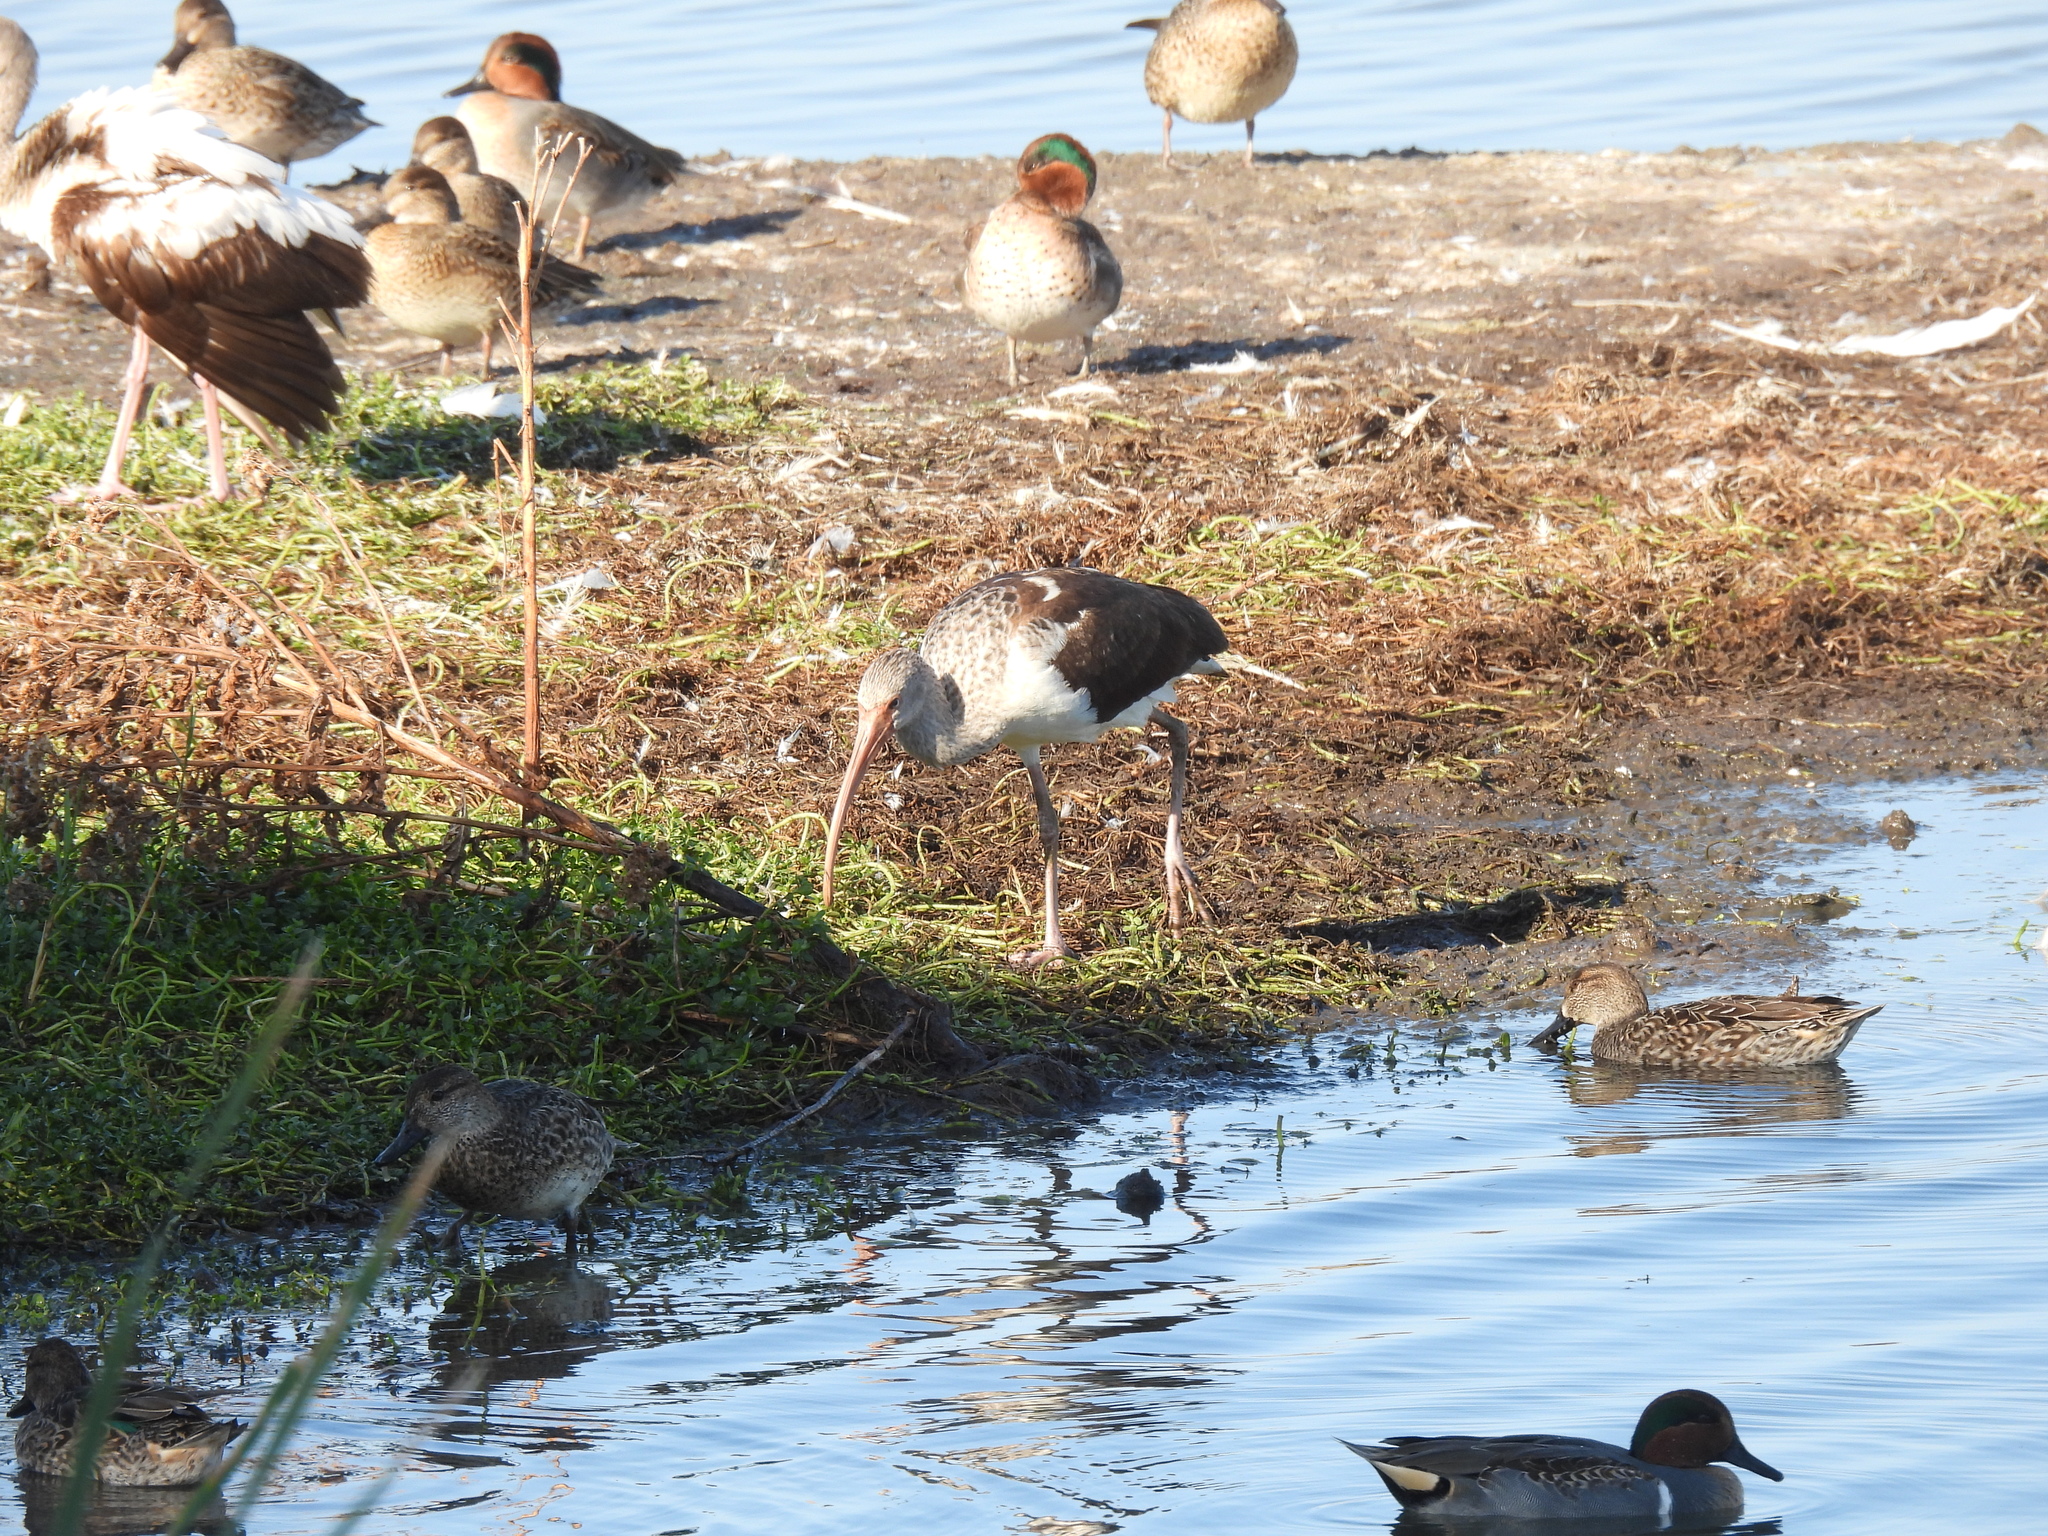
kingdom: Animalia
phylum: Chordata
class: Aves
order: Pelecaniformes
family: Threskiornithidae
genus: Eudocimus
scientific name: Eudocimus albus
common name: White ibis
